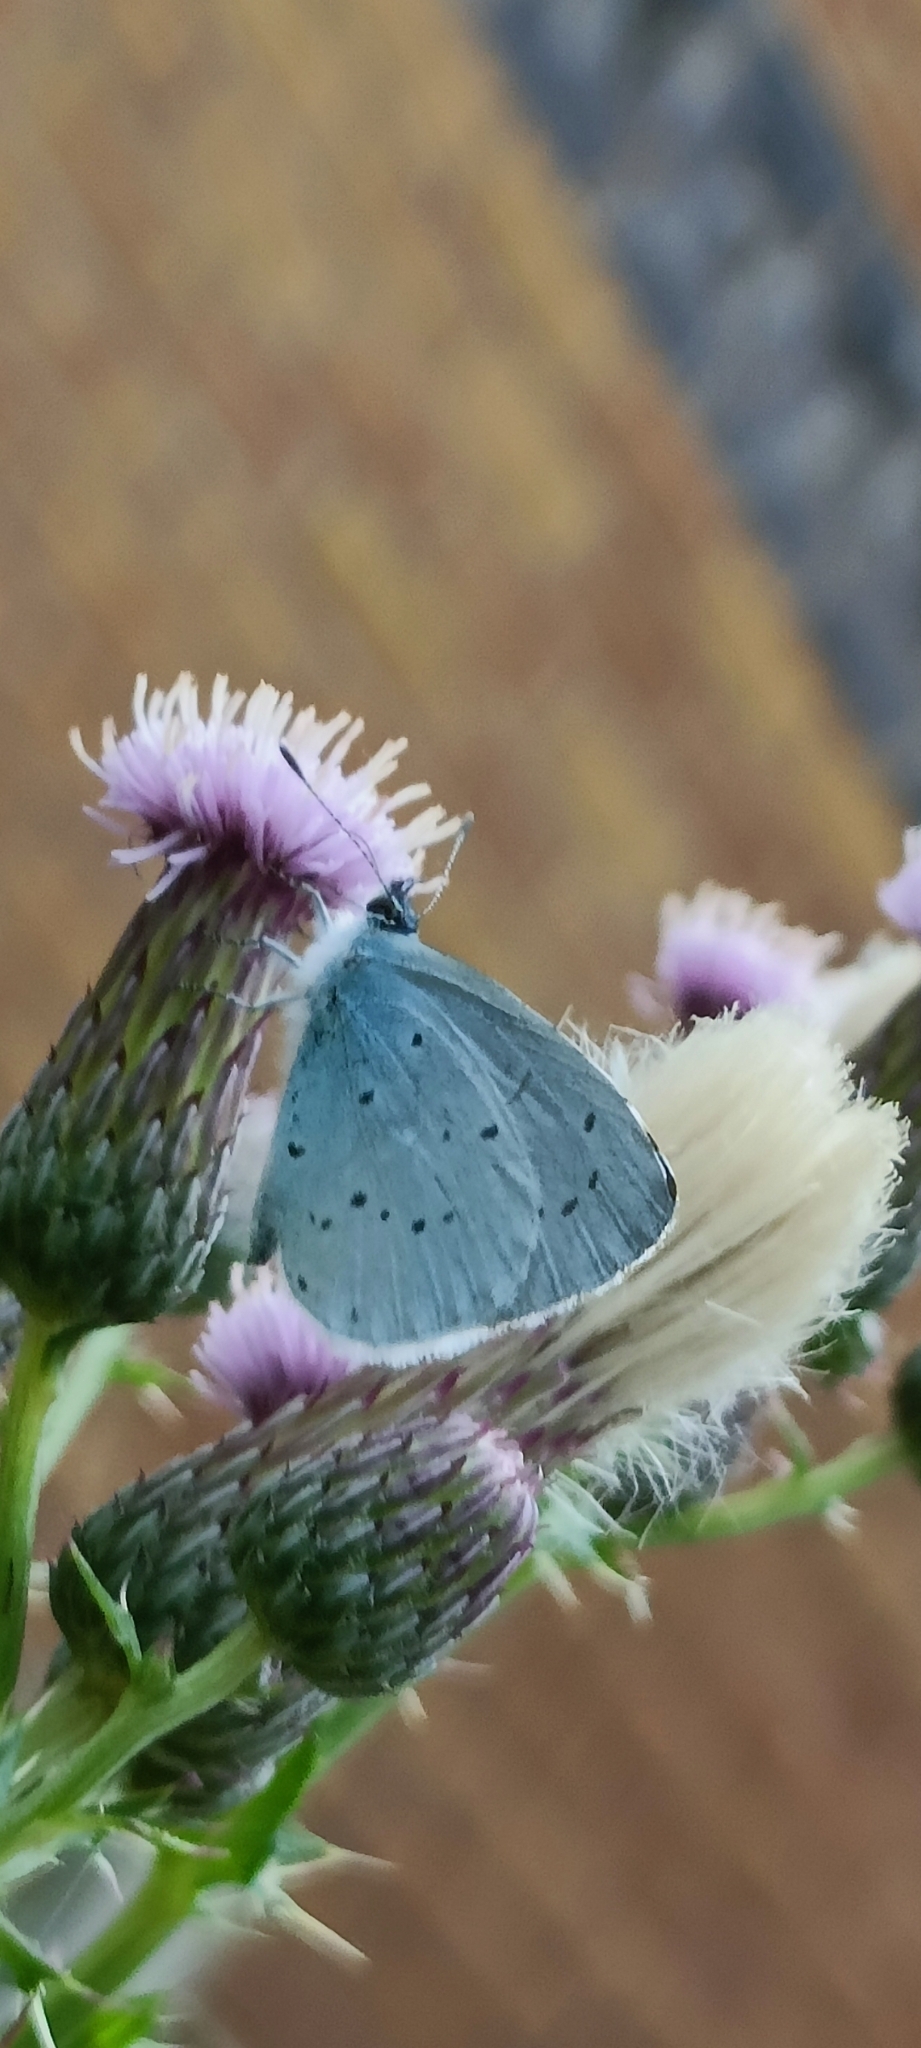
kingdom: Animalia
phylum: Arthropoda
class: Insecta
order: Lepidoptera
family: Lycaenidae
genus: Celastrina
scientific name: Celastrina argiolus
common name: Holly blue
